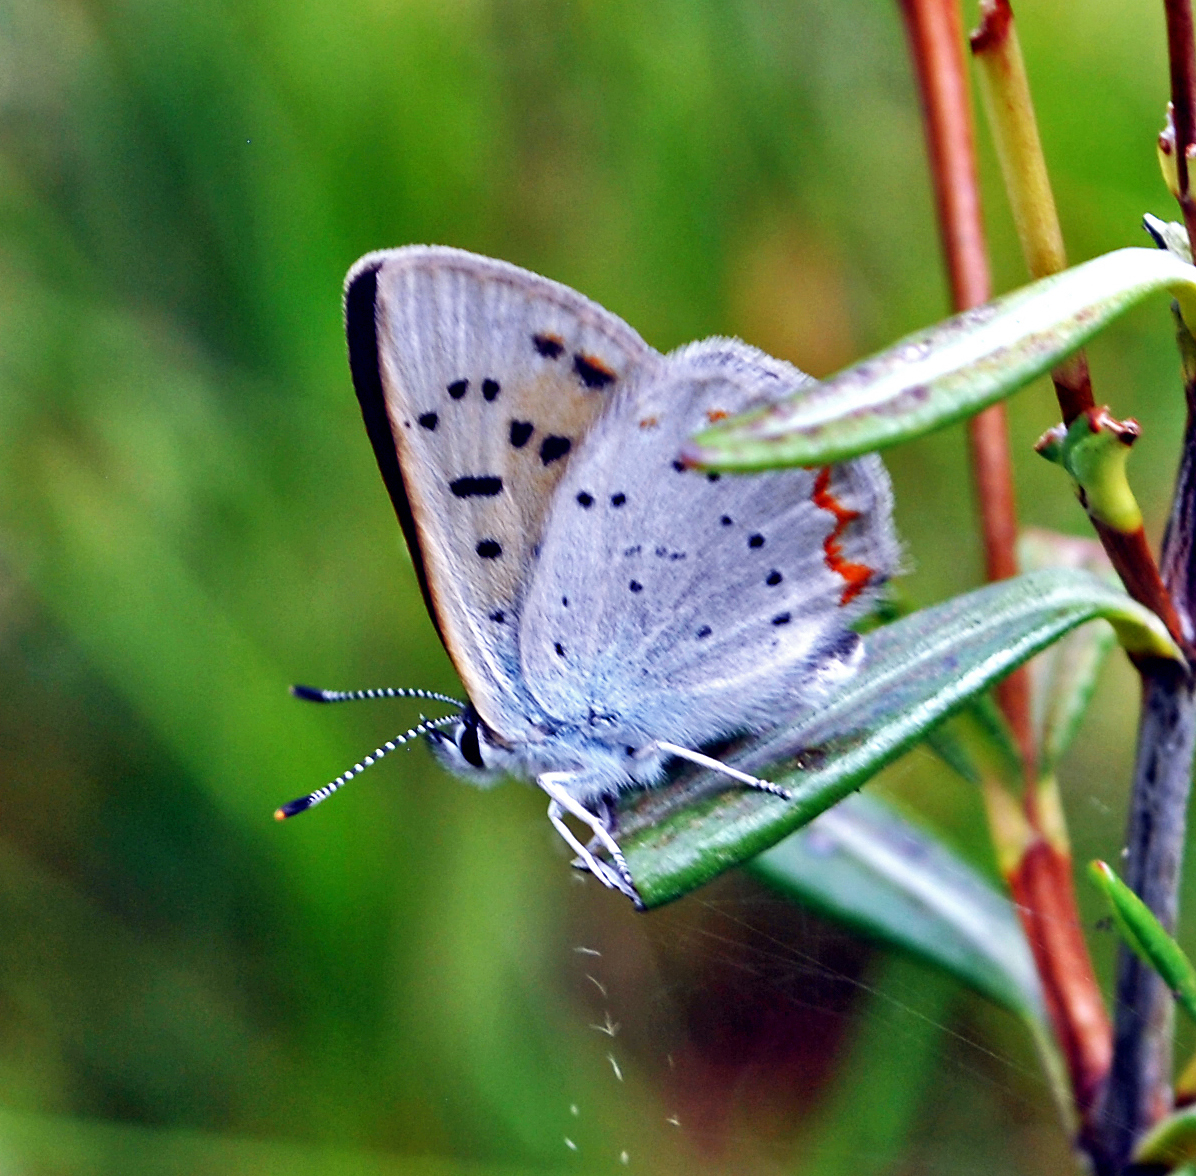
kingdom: Animalia
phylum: Arthropoda
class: Insecta
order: Lepidoptera
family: Lycaenidae
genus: Tharsalea
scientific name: Tharsalea epixanthe
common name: Bog copper
